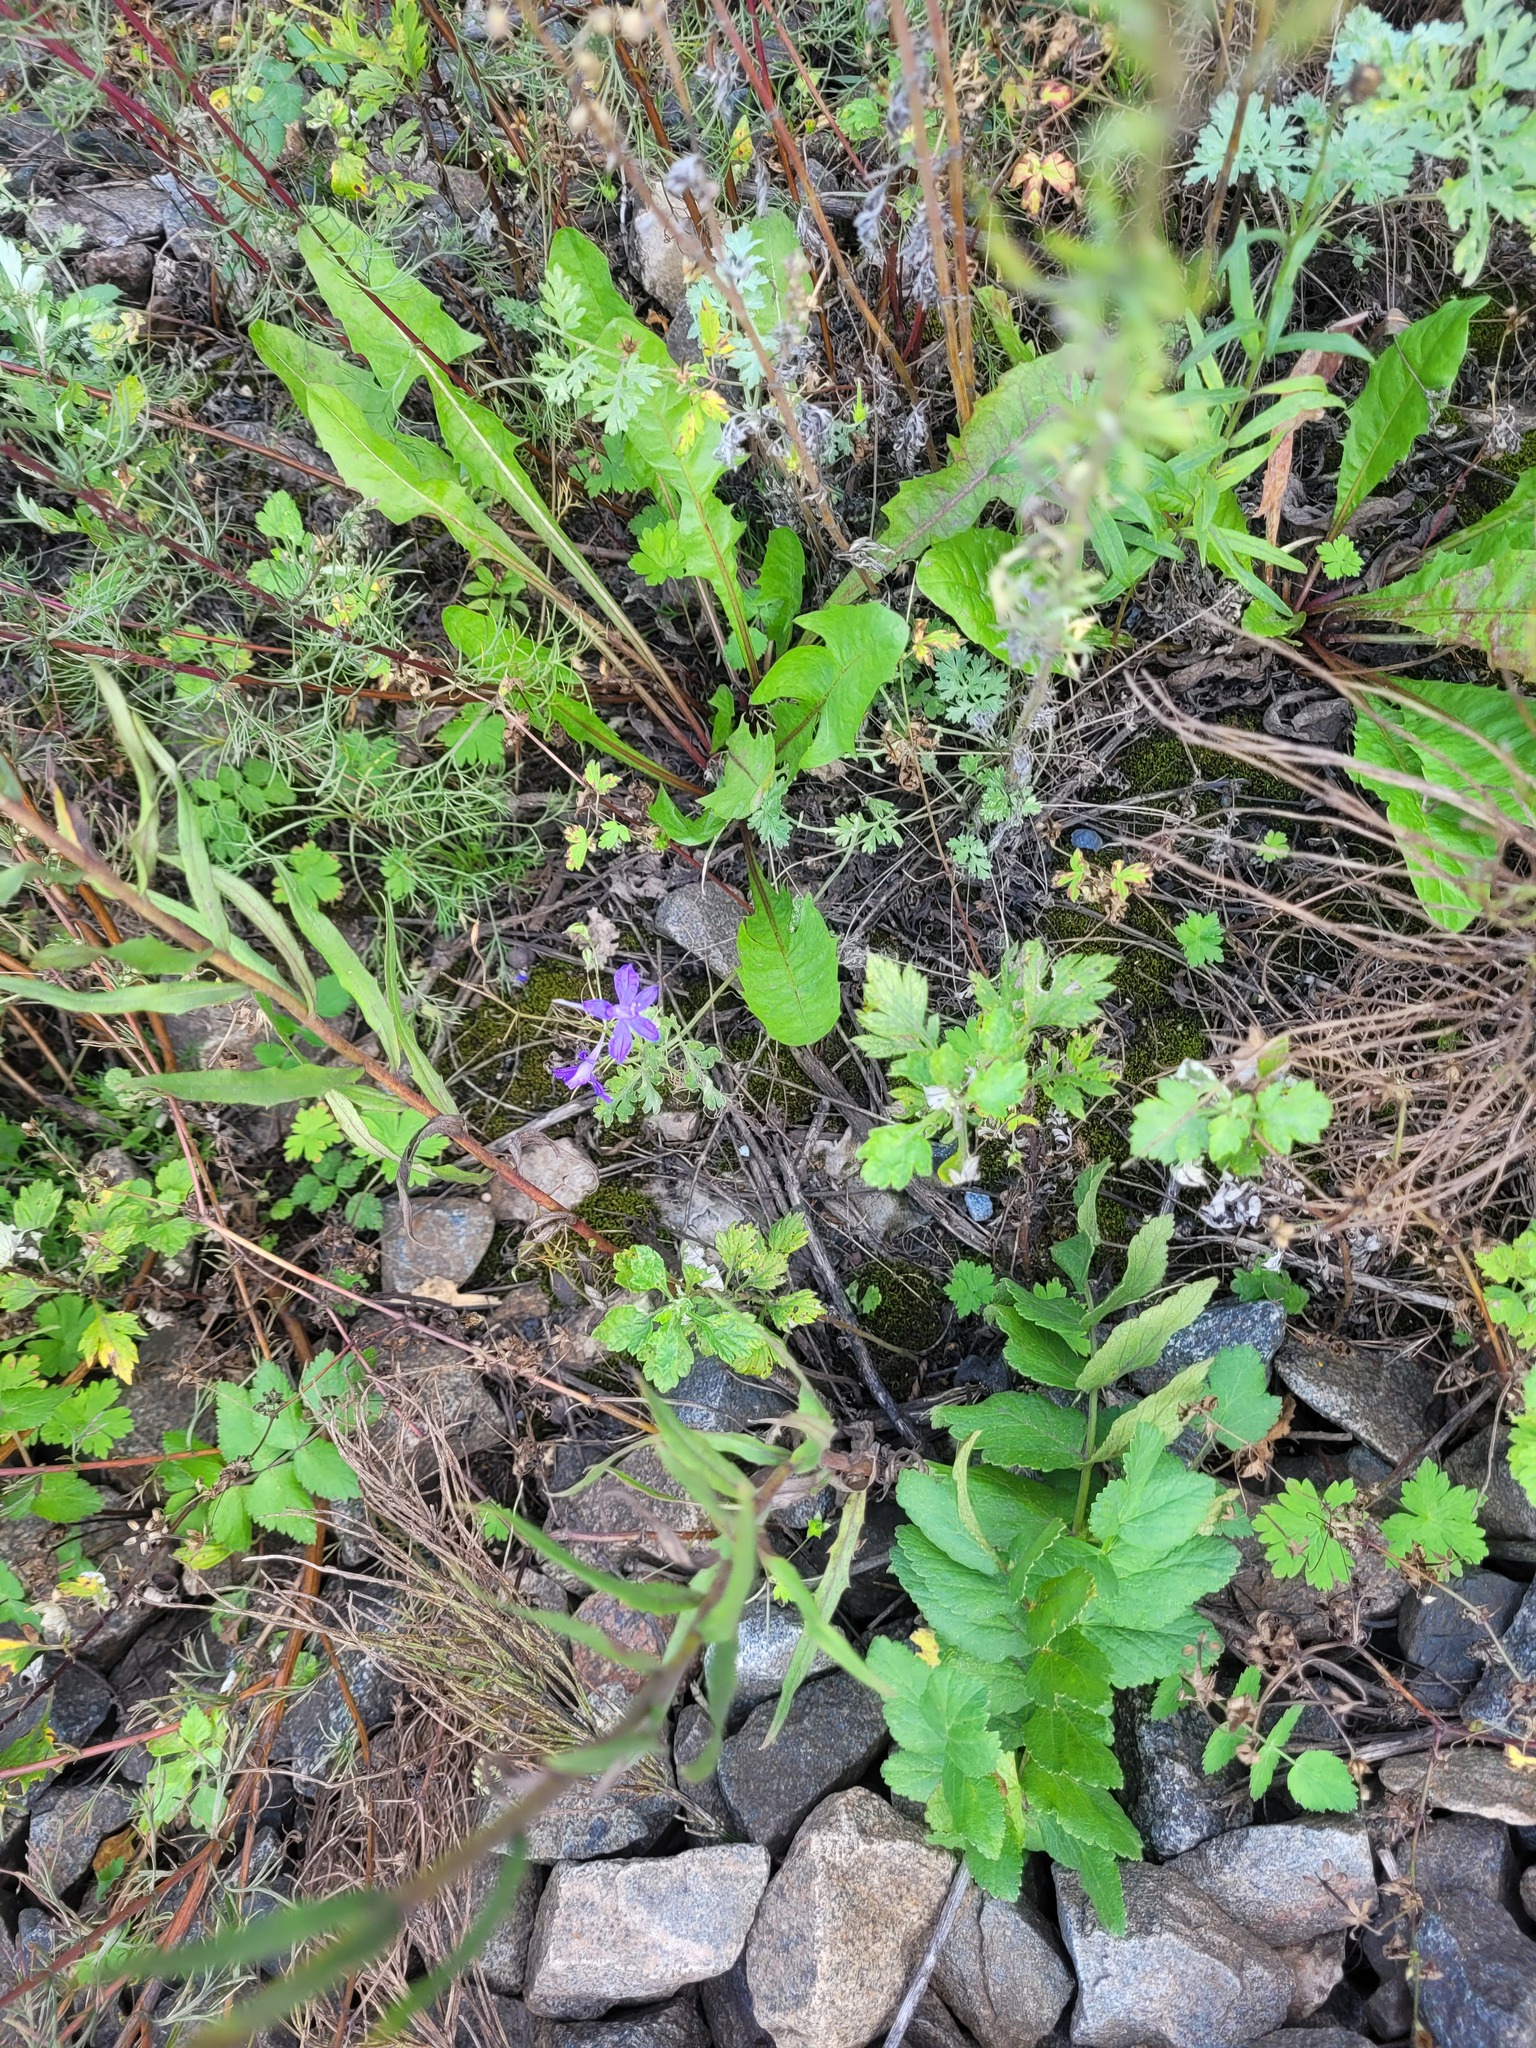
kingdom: Plantae
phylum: Tracheophyta
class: Magnoliopsida
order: Ranunculales
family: Ranunculaceae
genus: Delphinium
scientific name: Delphinium consolida
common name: Branching larkspur
